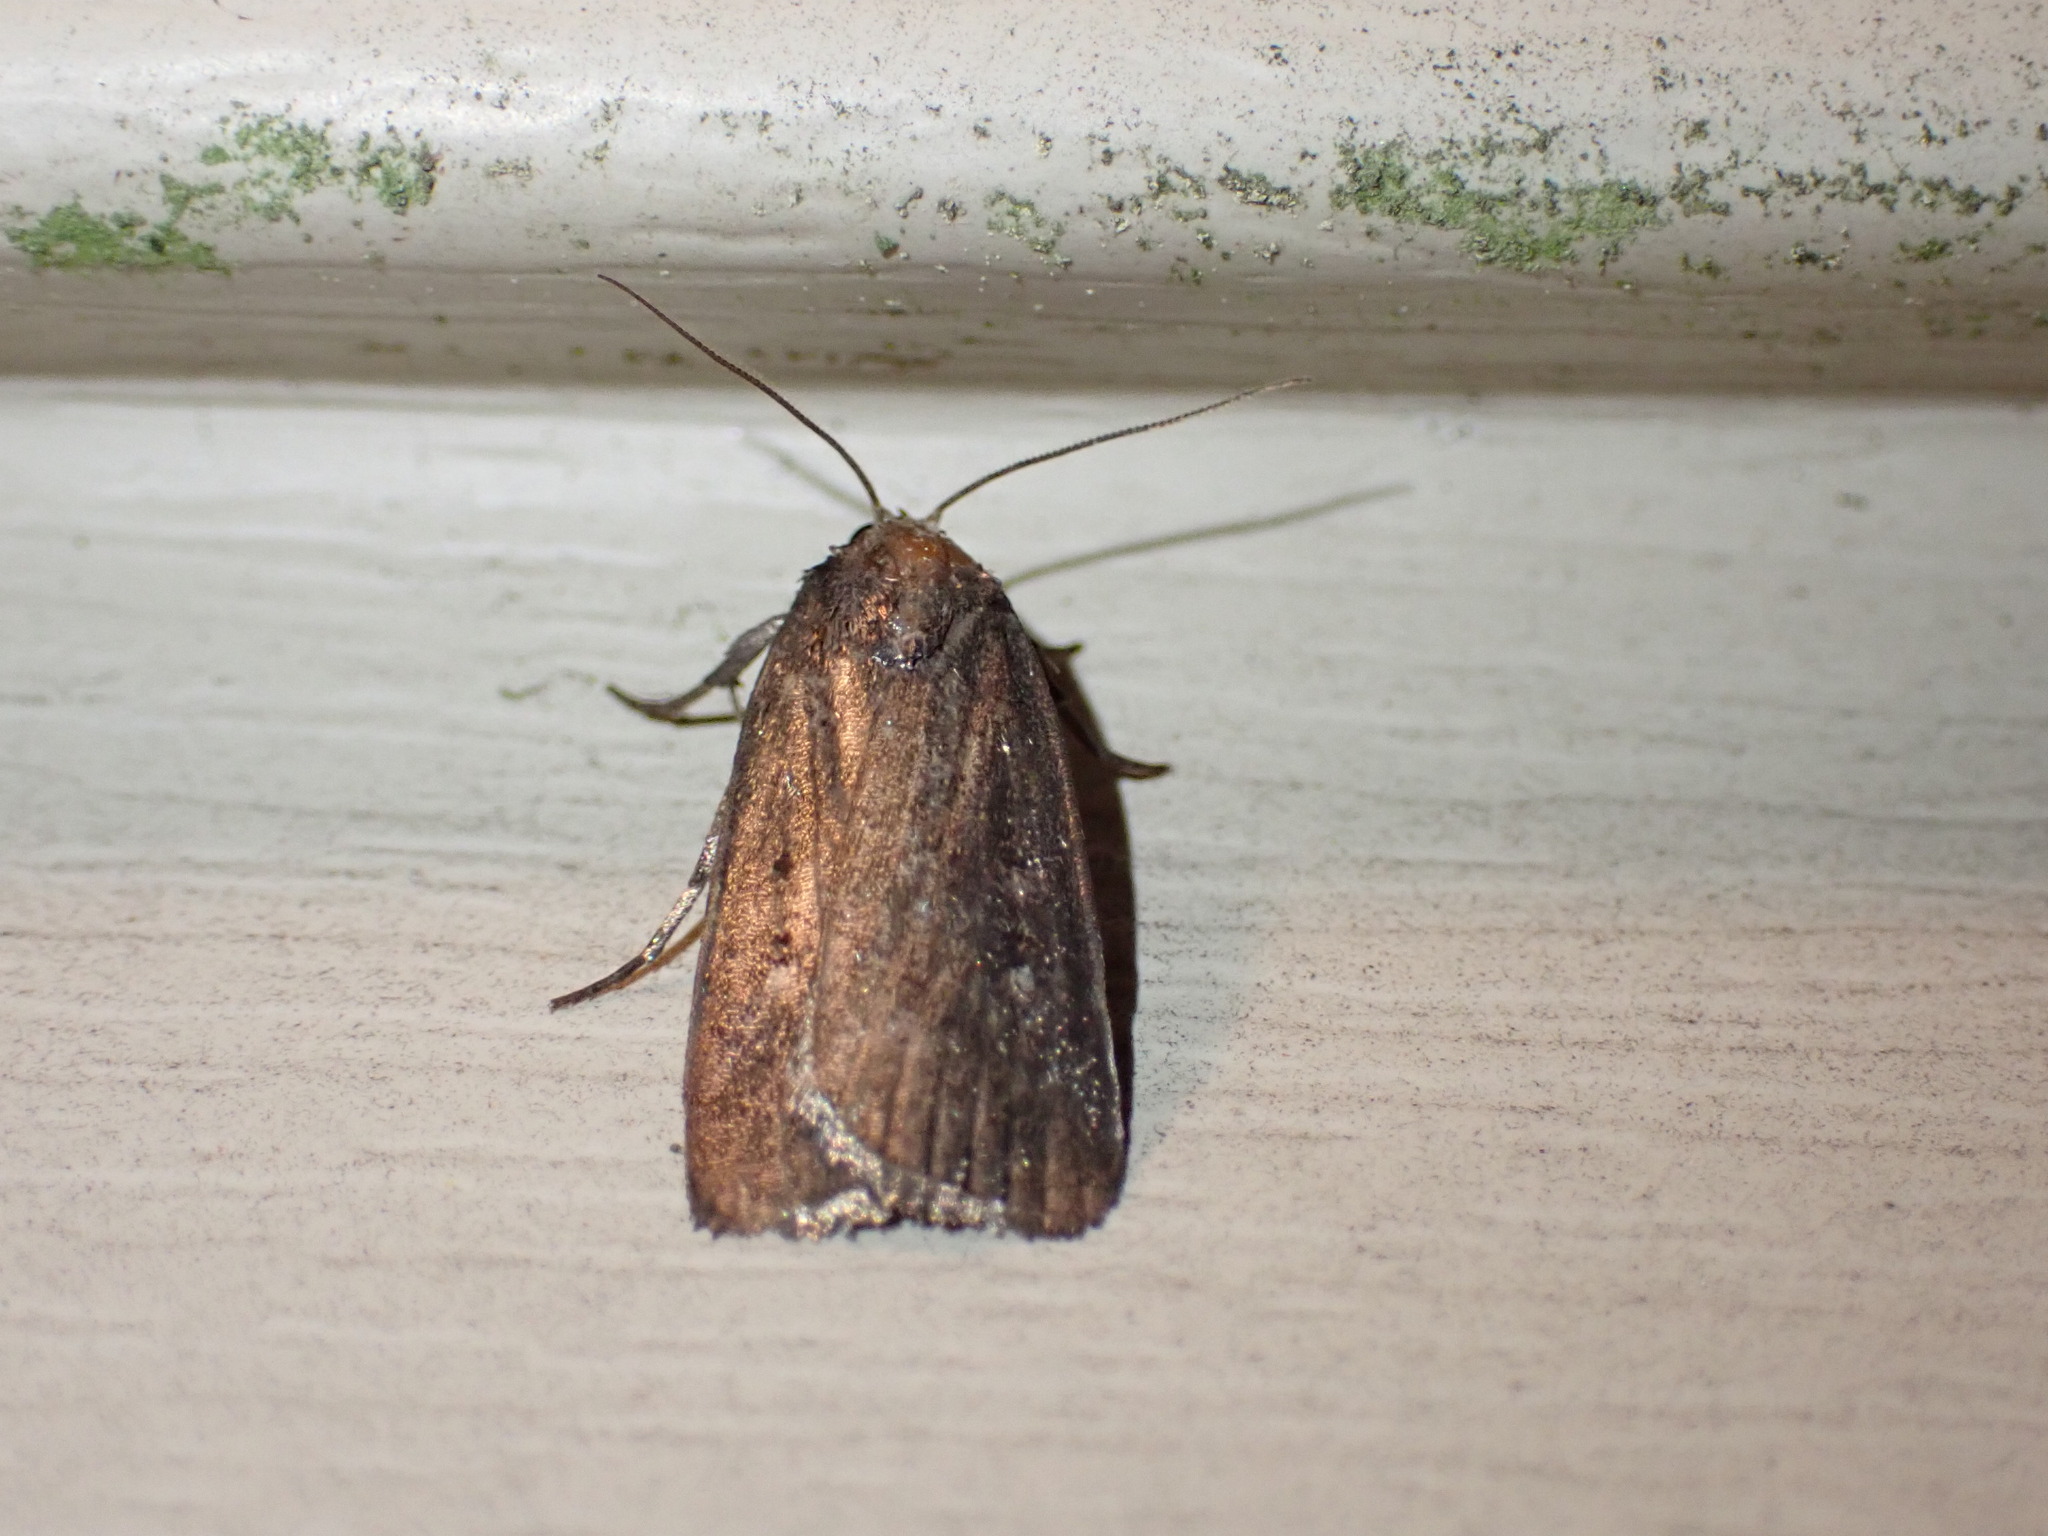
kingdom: Animalia
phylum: Arthropoda
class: Insecta
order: Lepidoptera
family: Noctuidae
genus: Proxenus
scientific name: Proxenus miranda
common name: Miranda moth
